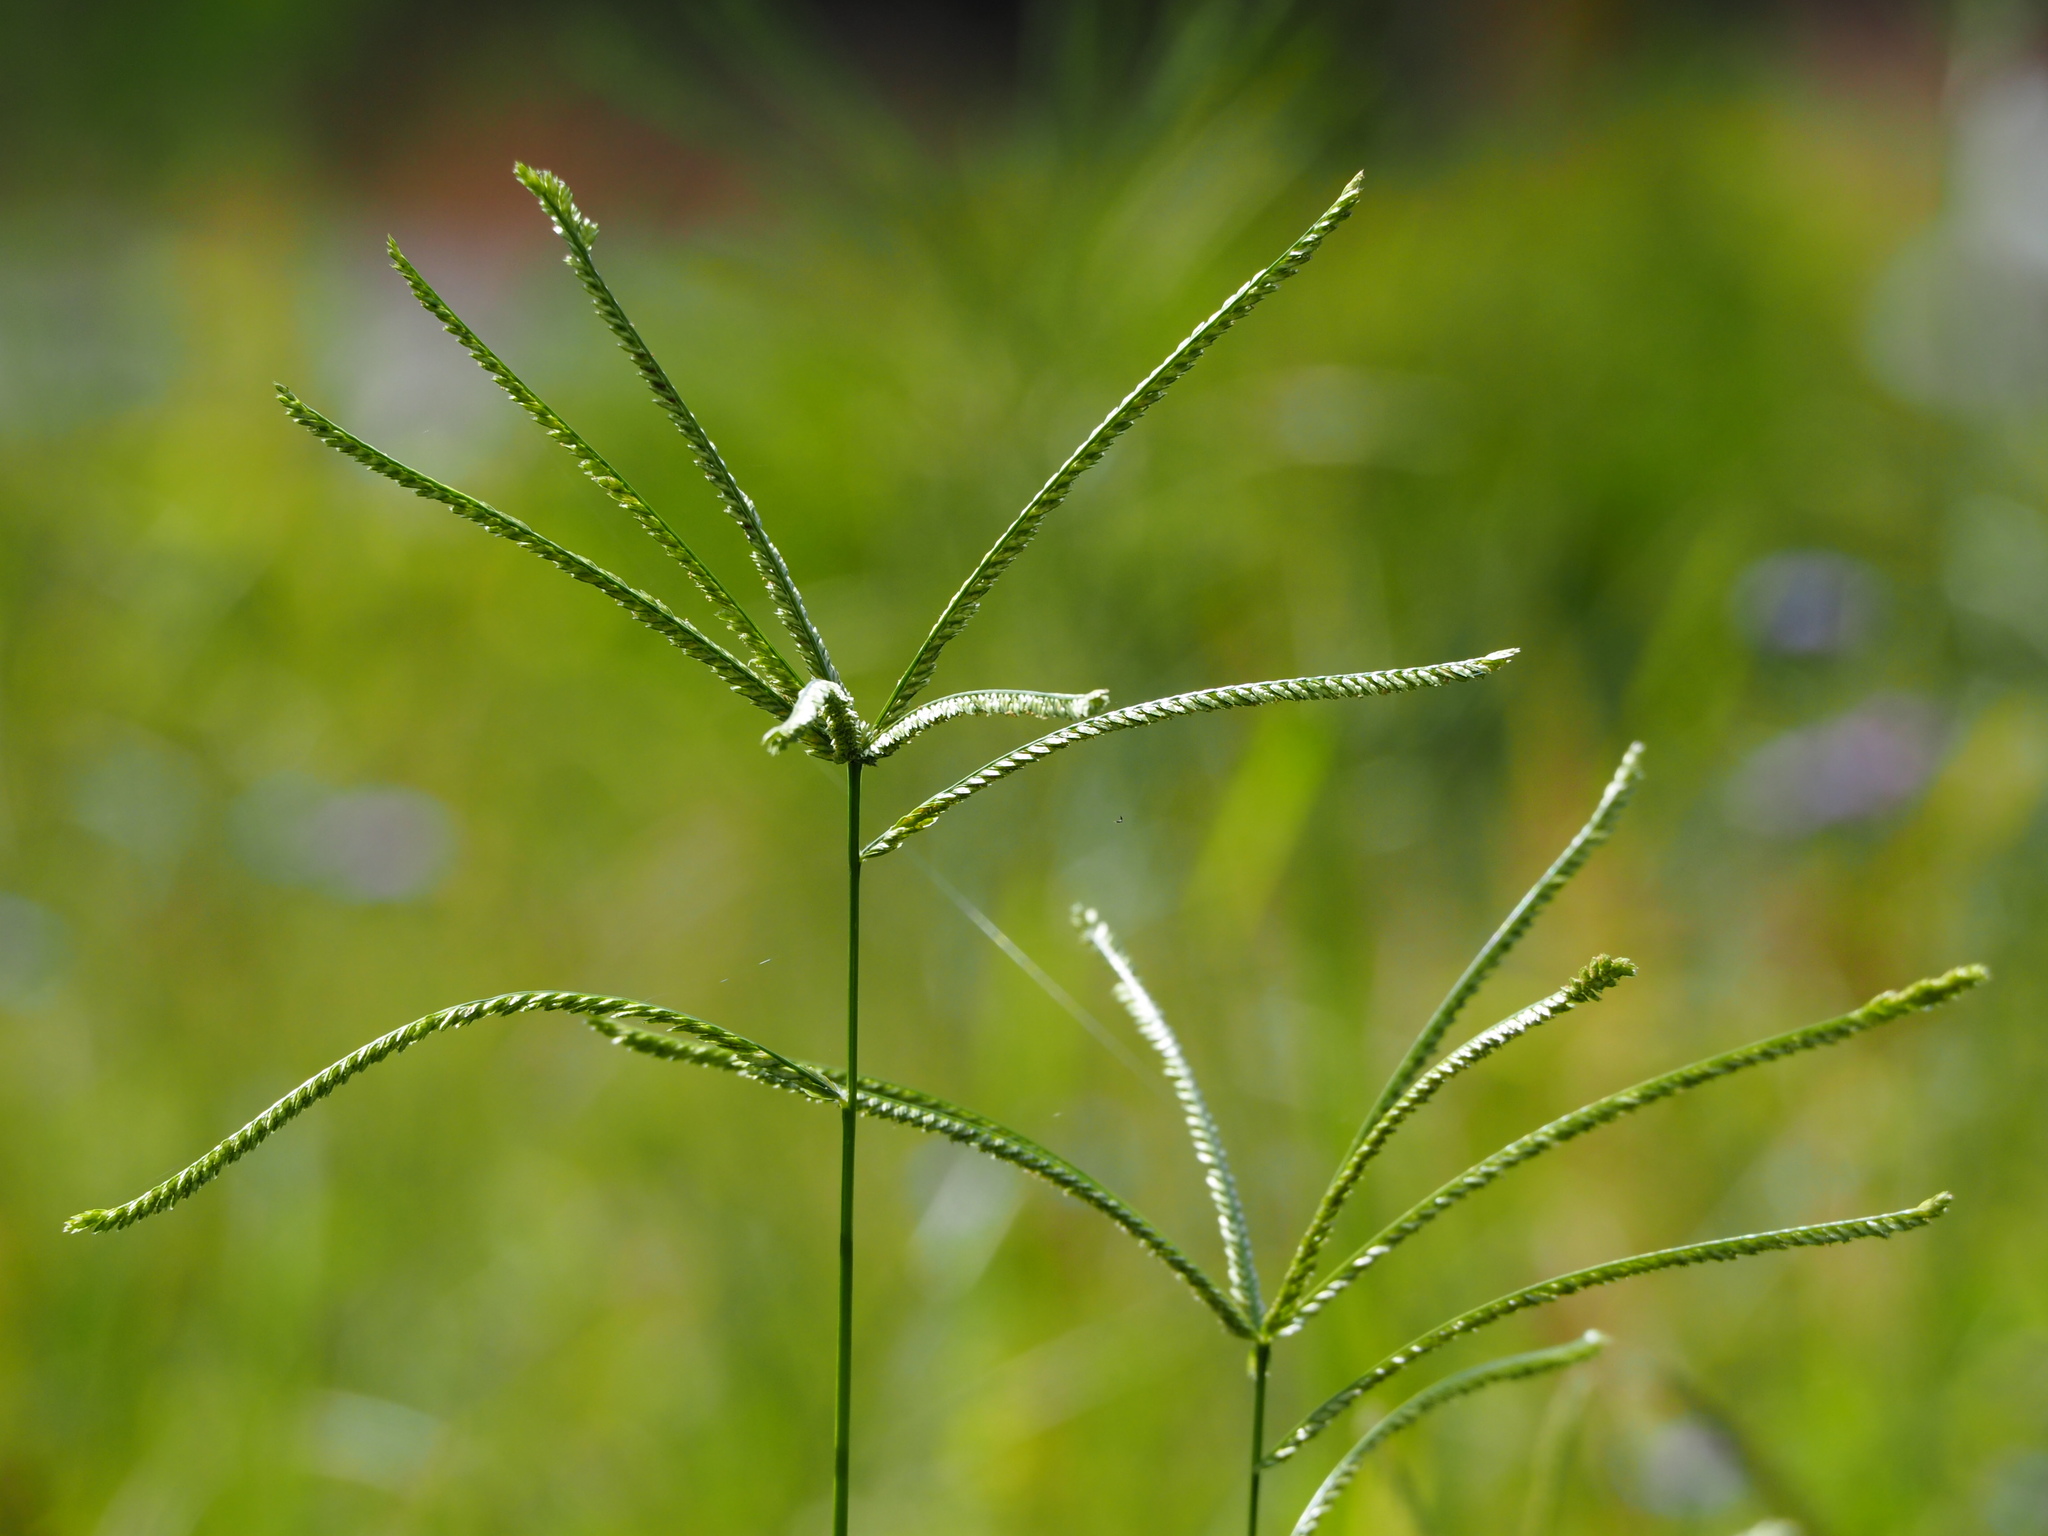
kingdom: Plantae
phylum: Tracheophyta
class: Liliopsida
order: Poales
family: Poaceae
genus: Eleusine
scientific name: Eleusine indica
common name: Yard-grass
